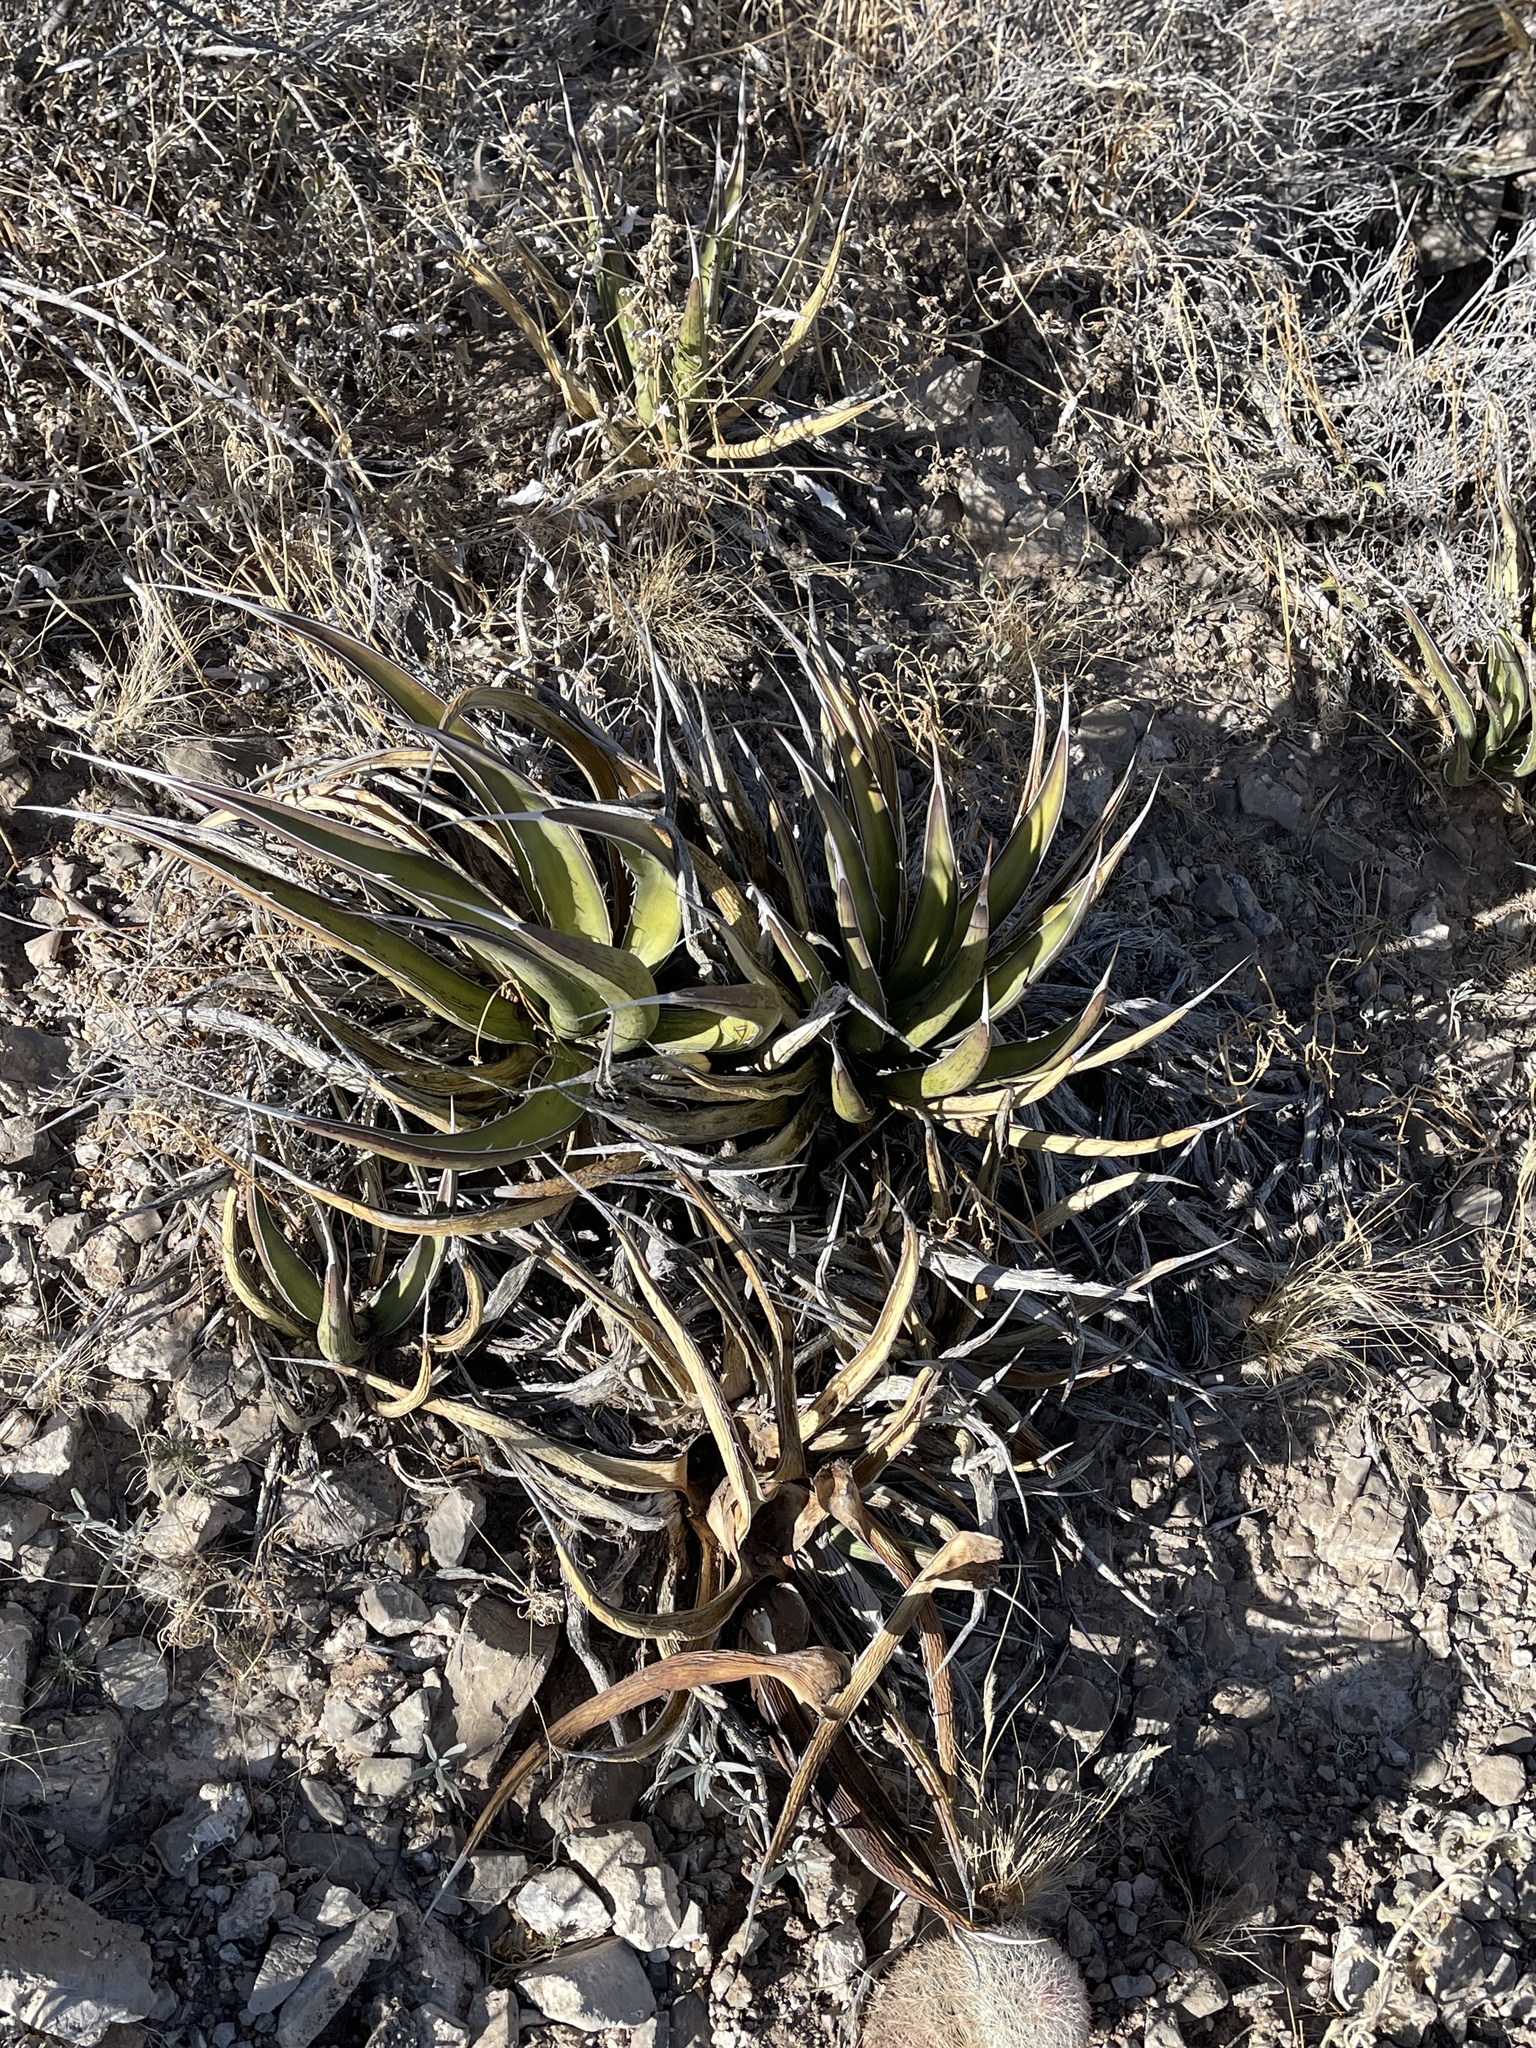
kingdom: Plantae
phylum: Tracheophyta
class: Liliopsida
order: Asparagales
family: Asparagaceae
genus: Agave
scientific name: Agave lechuguilla
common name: Lecheguilla agave
